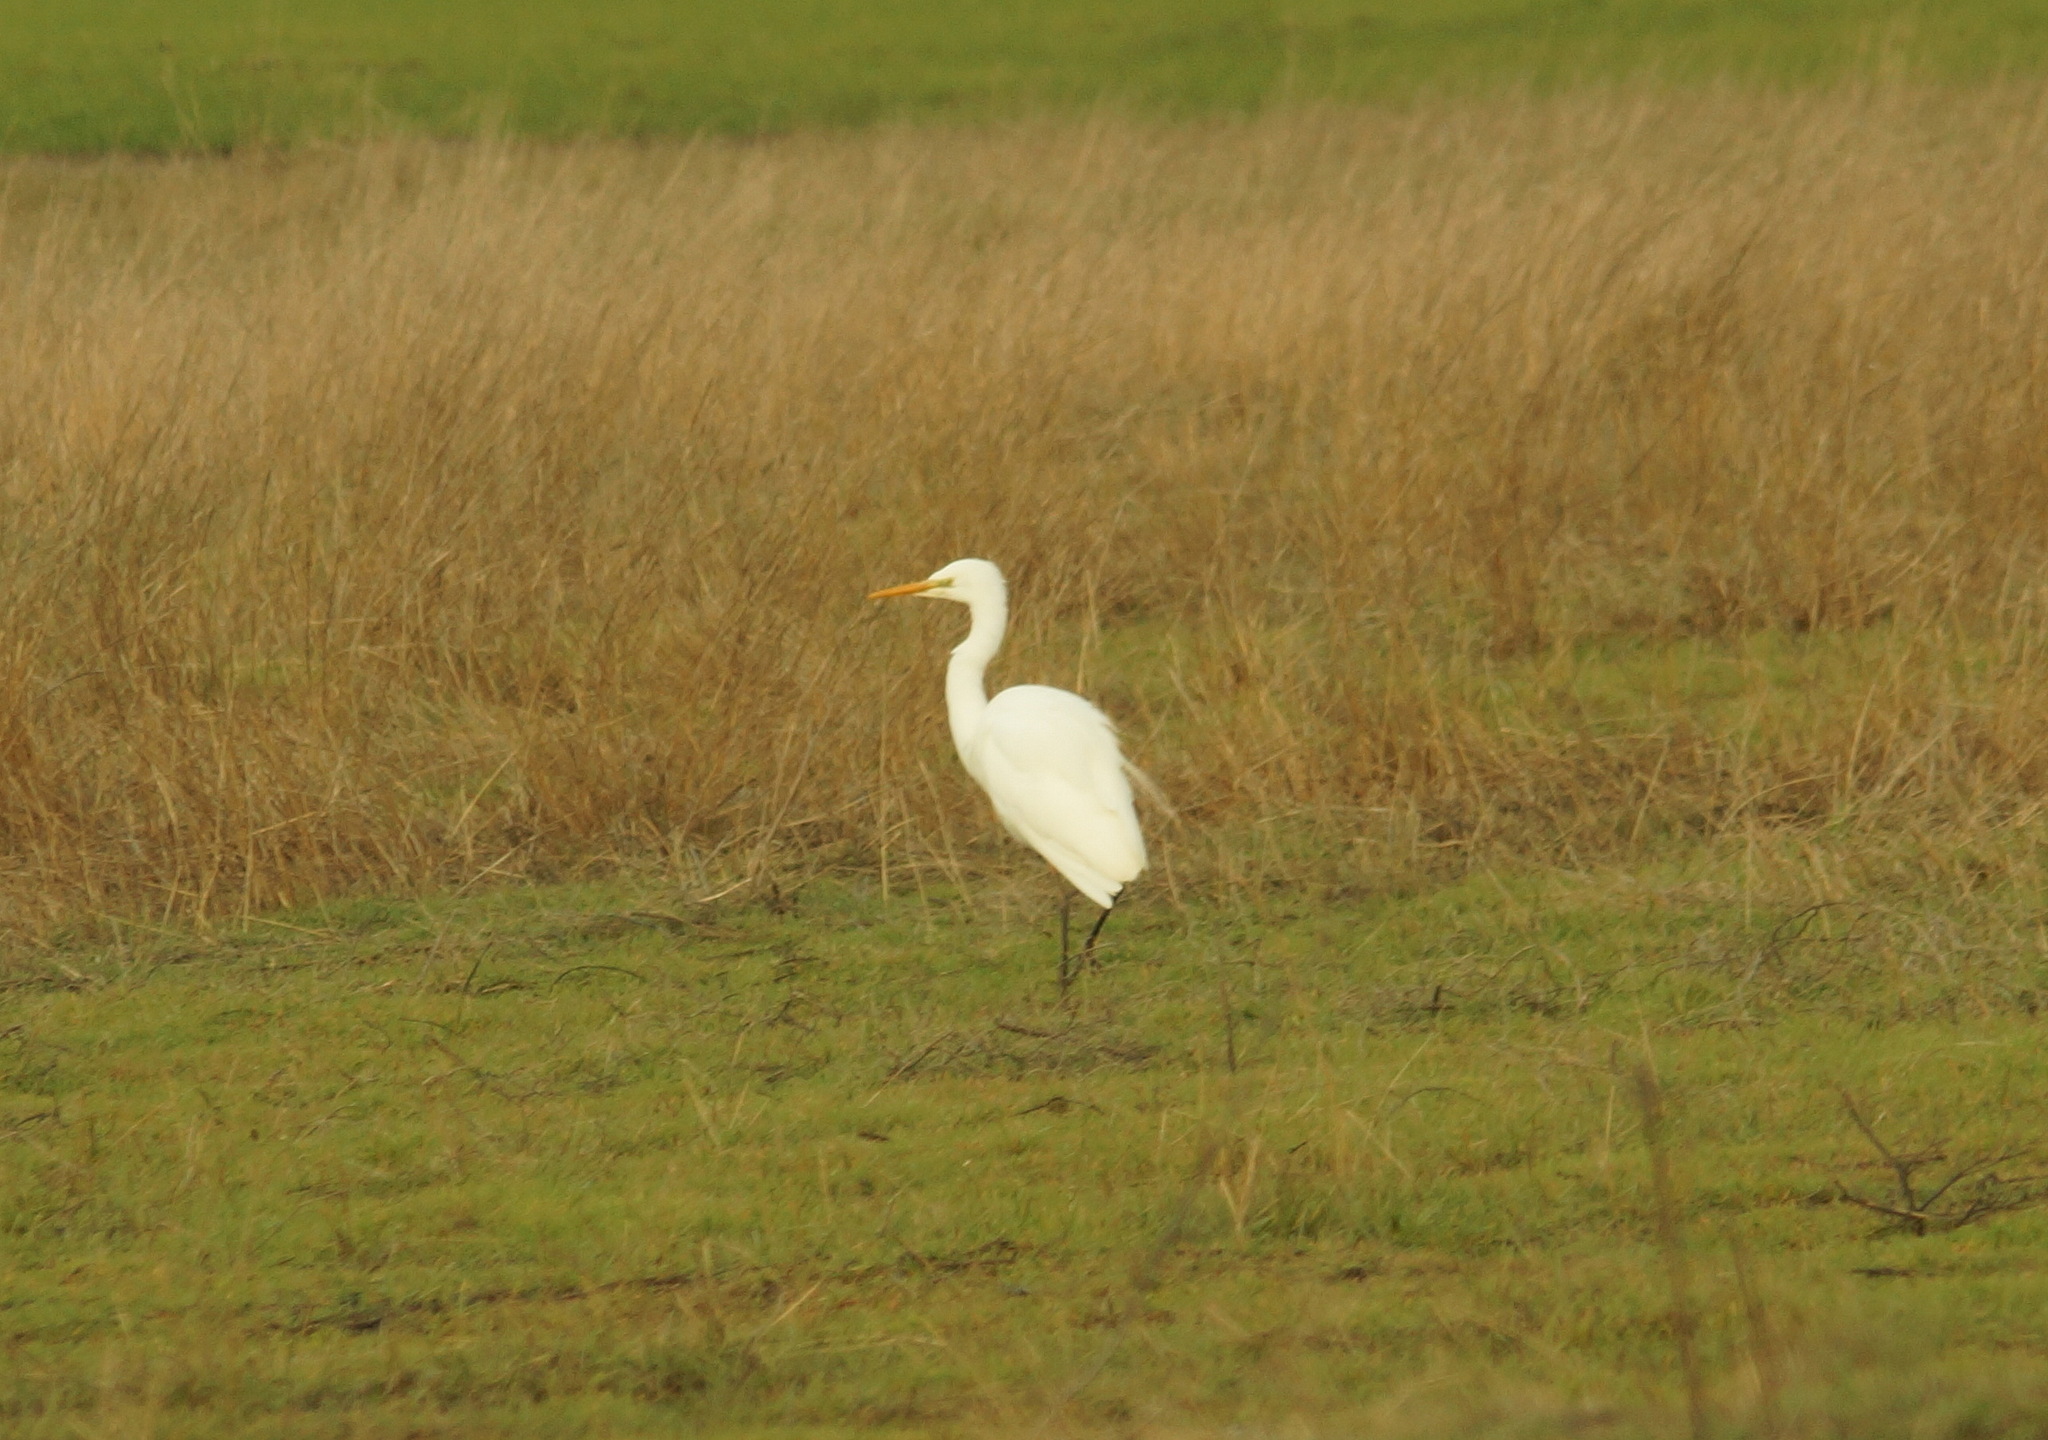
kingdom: Animalia
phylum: Chordata
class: Aves
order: Pelecaniformes
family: Ardeidae
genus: Ardea
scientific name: Ardea alba
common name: Great egret
